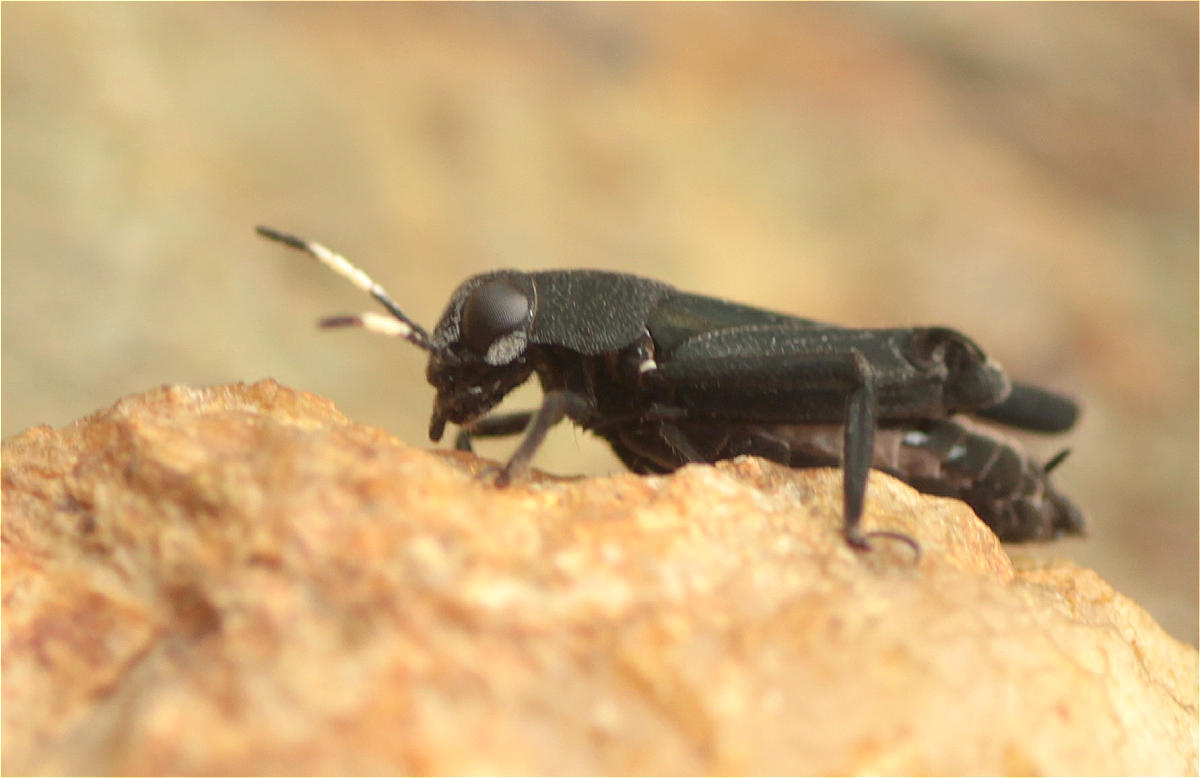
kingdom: Animalia
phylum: Arthropoda
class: Insecta
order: Orthoptera
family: Ripipterygidae
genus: Ripipteryx
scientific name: Ripipteryx forceps
